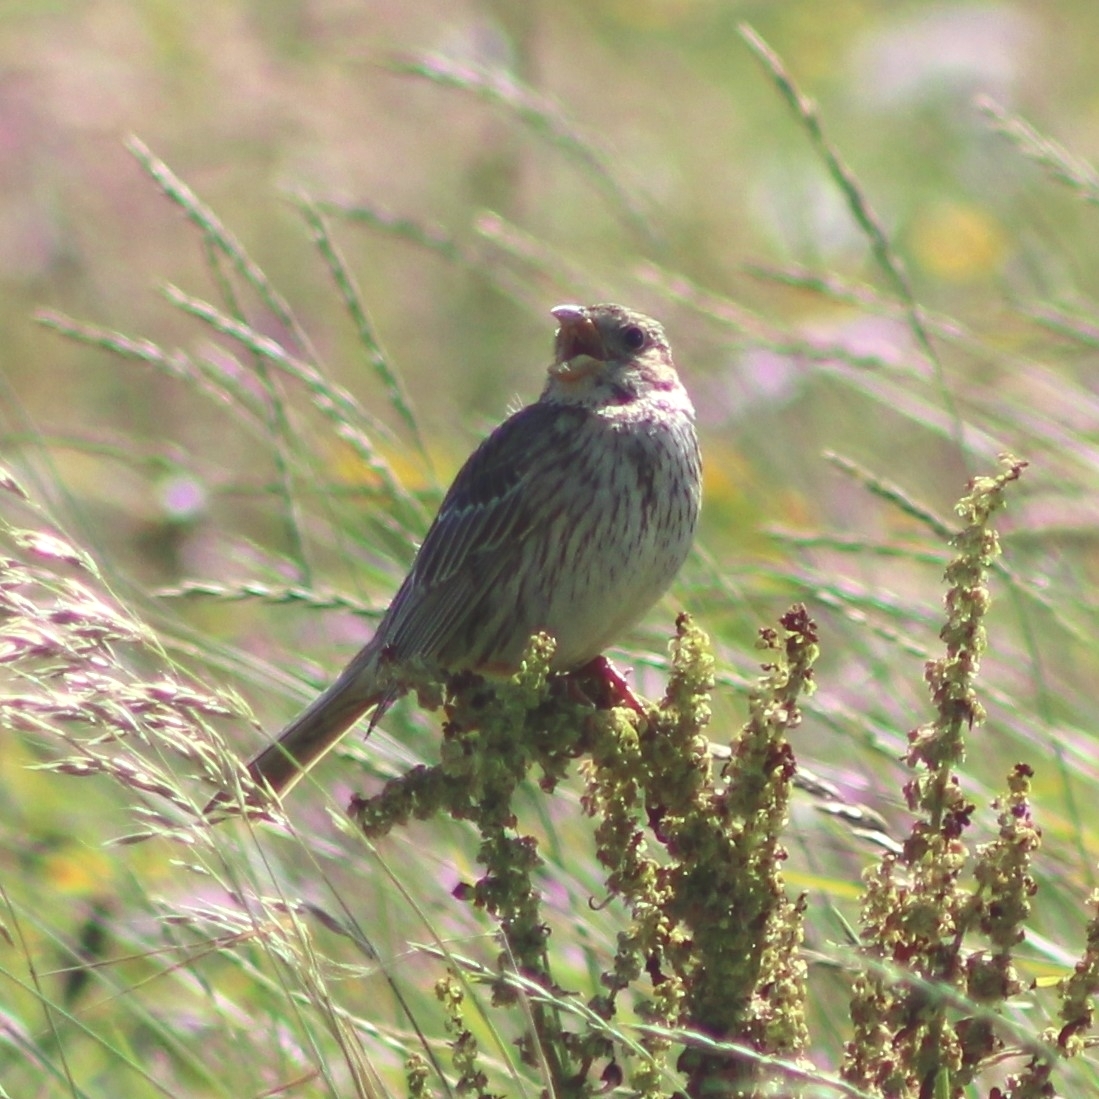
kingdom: Animalia
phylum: Chordata
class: Aves
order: Passeriformes
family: Emberizidae
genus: Emberiza
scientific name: Emberiza calandra
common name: Corn bunting
